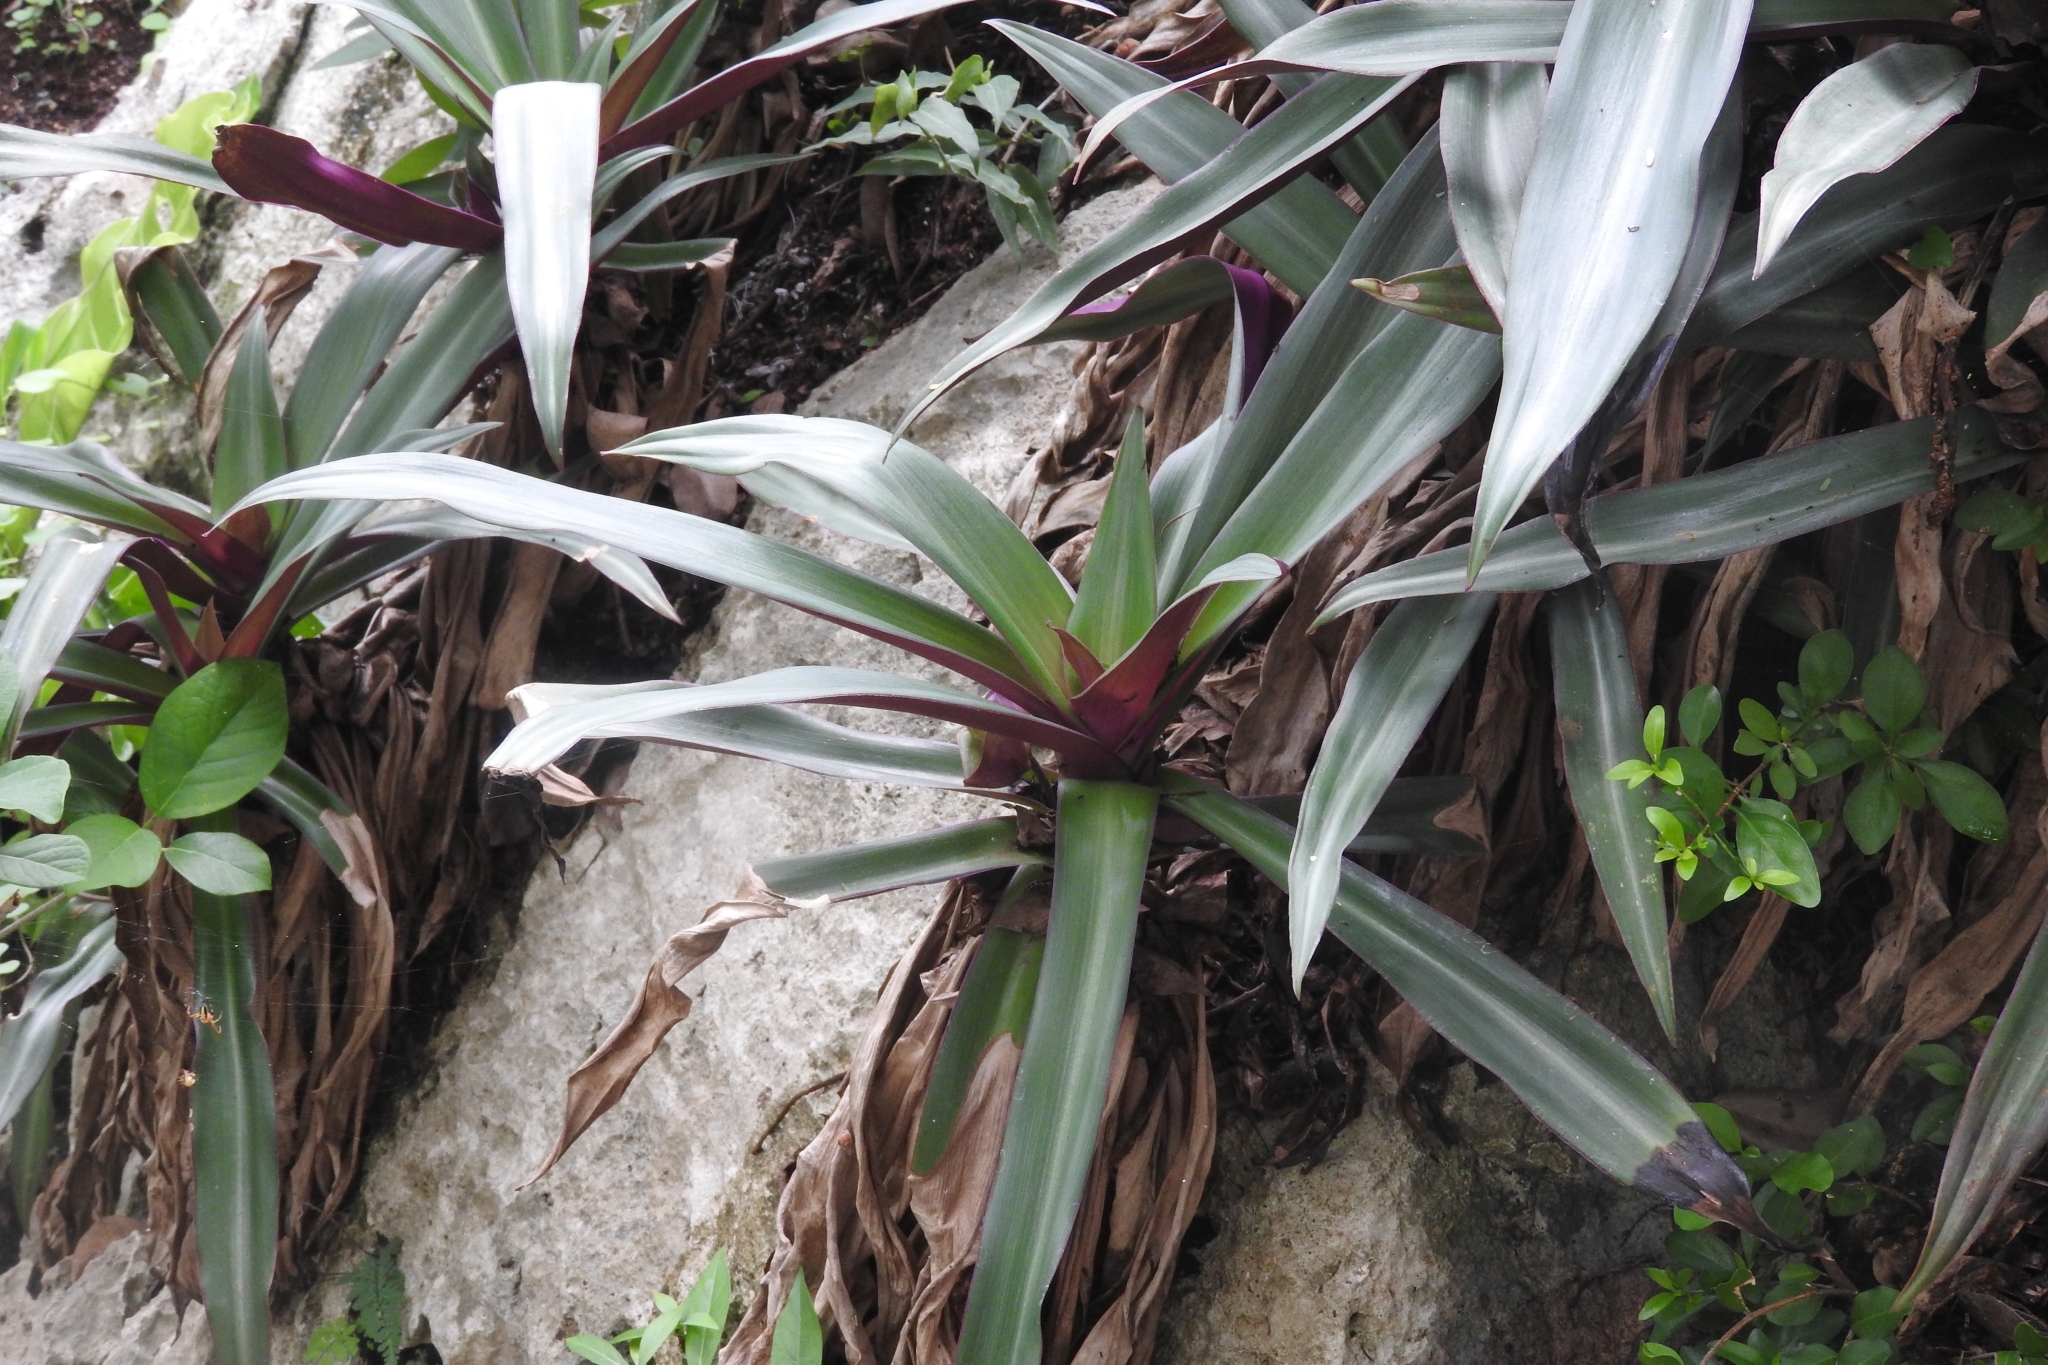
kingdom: Plantae
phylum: Tracheophyta
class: Liliopsida
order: Commelinales
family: Commelinaceae
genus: Tradescantia
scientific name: Tradescantia spathacea
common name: Boatlily
